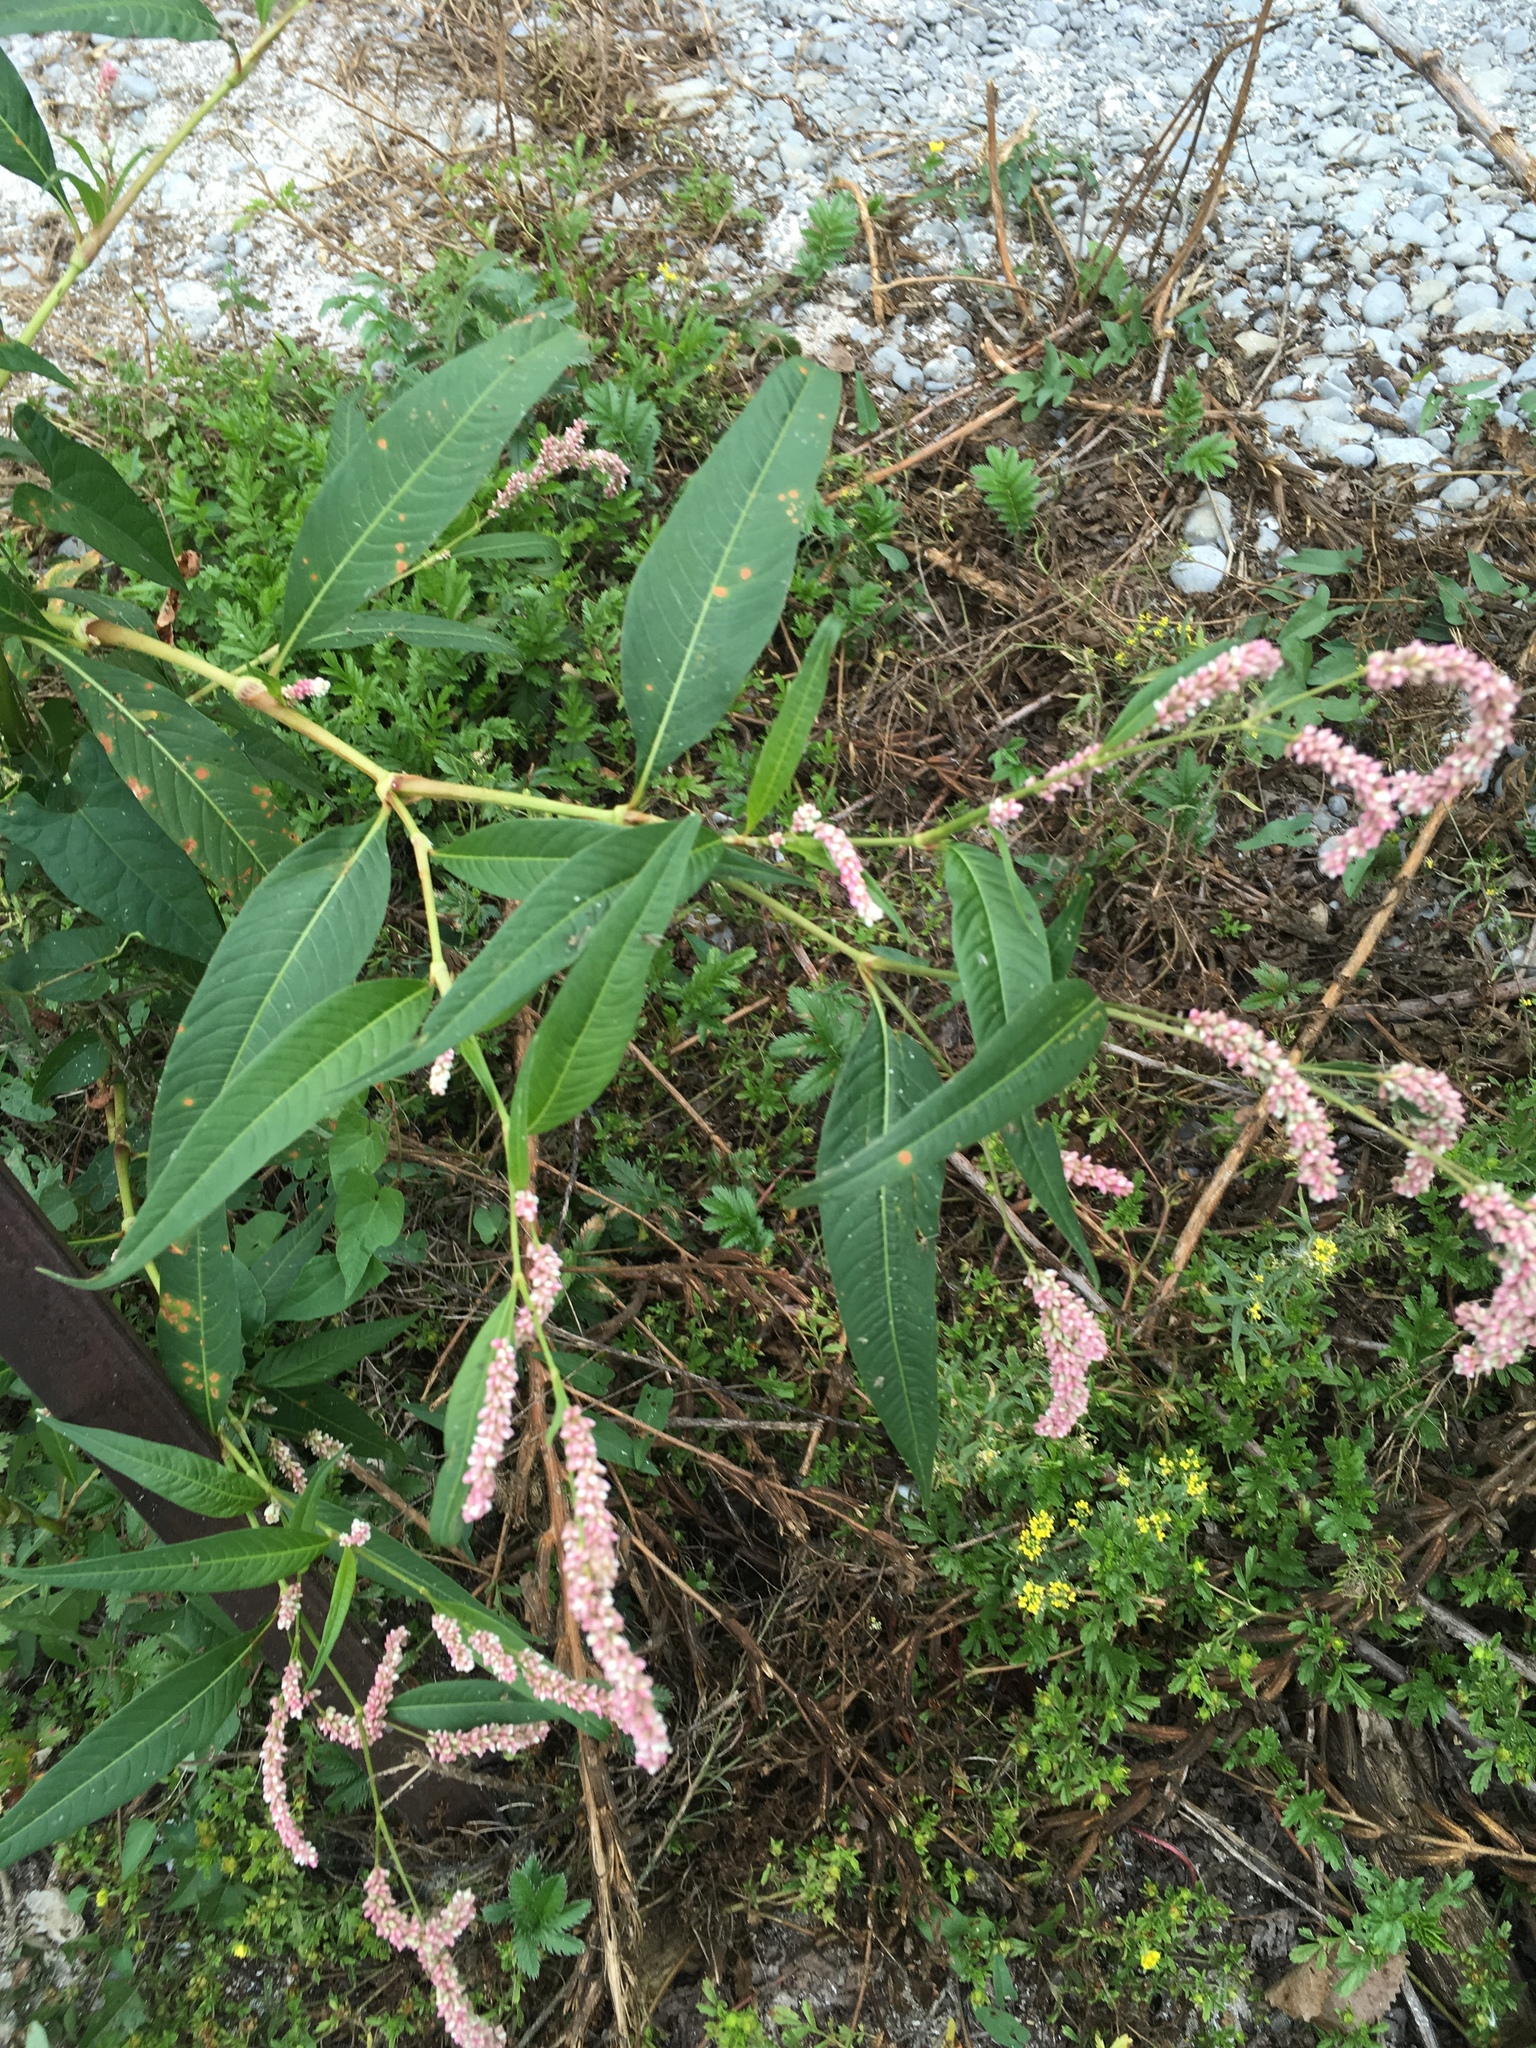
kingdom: Plantae
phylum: Tracheophyta
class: Magnoliopsida
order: Caryophyllales
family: Polygonaceae
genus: Persicaria
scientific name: Persicaria maculosa
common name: Redshank
